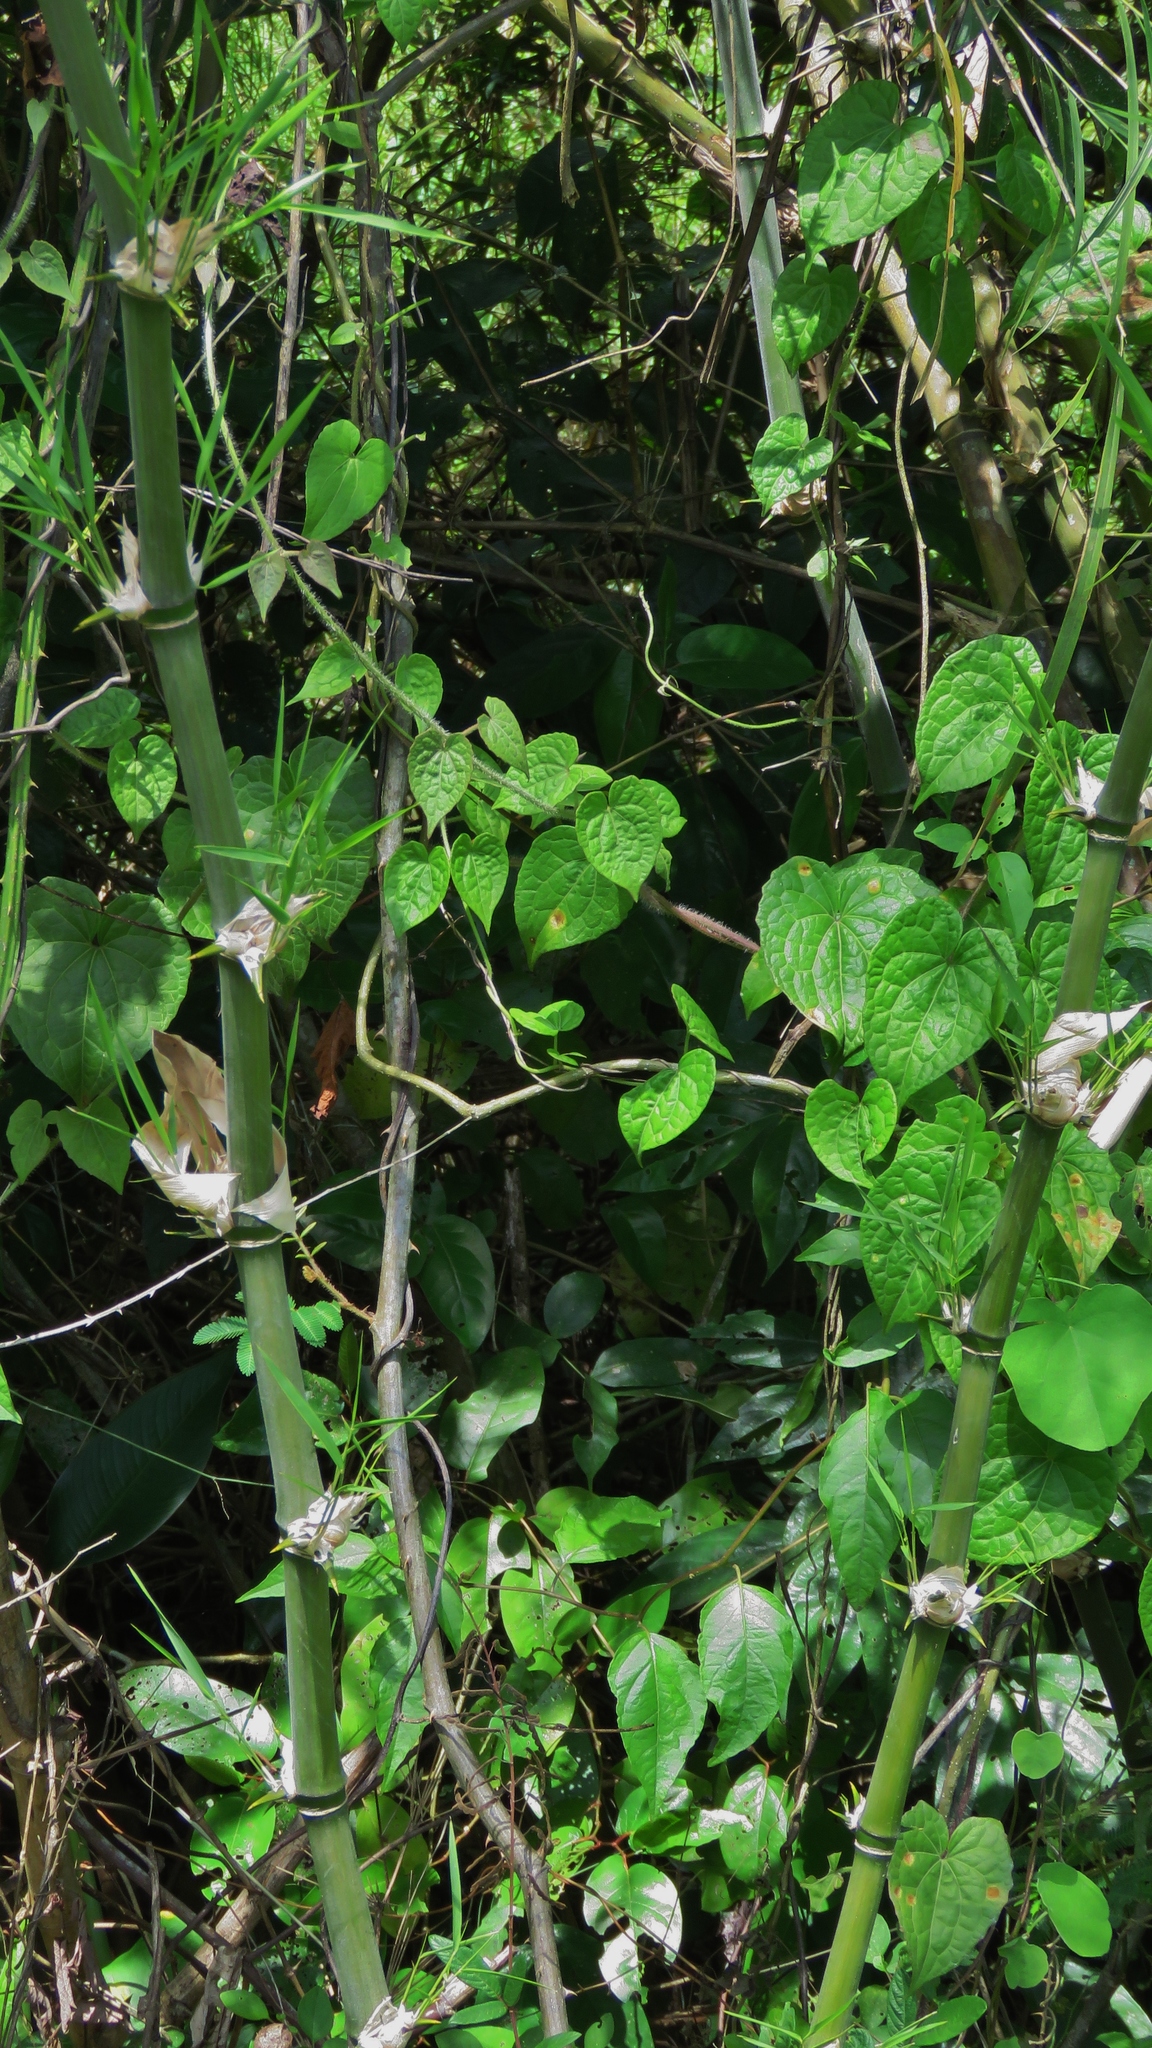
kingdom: Plantae
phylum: Tracheophyta
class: Liliopsida
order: Poales
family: Poaceae
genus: Guadua
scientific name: Guadua longifolia
